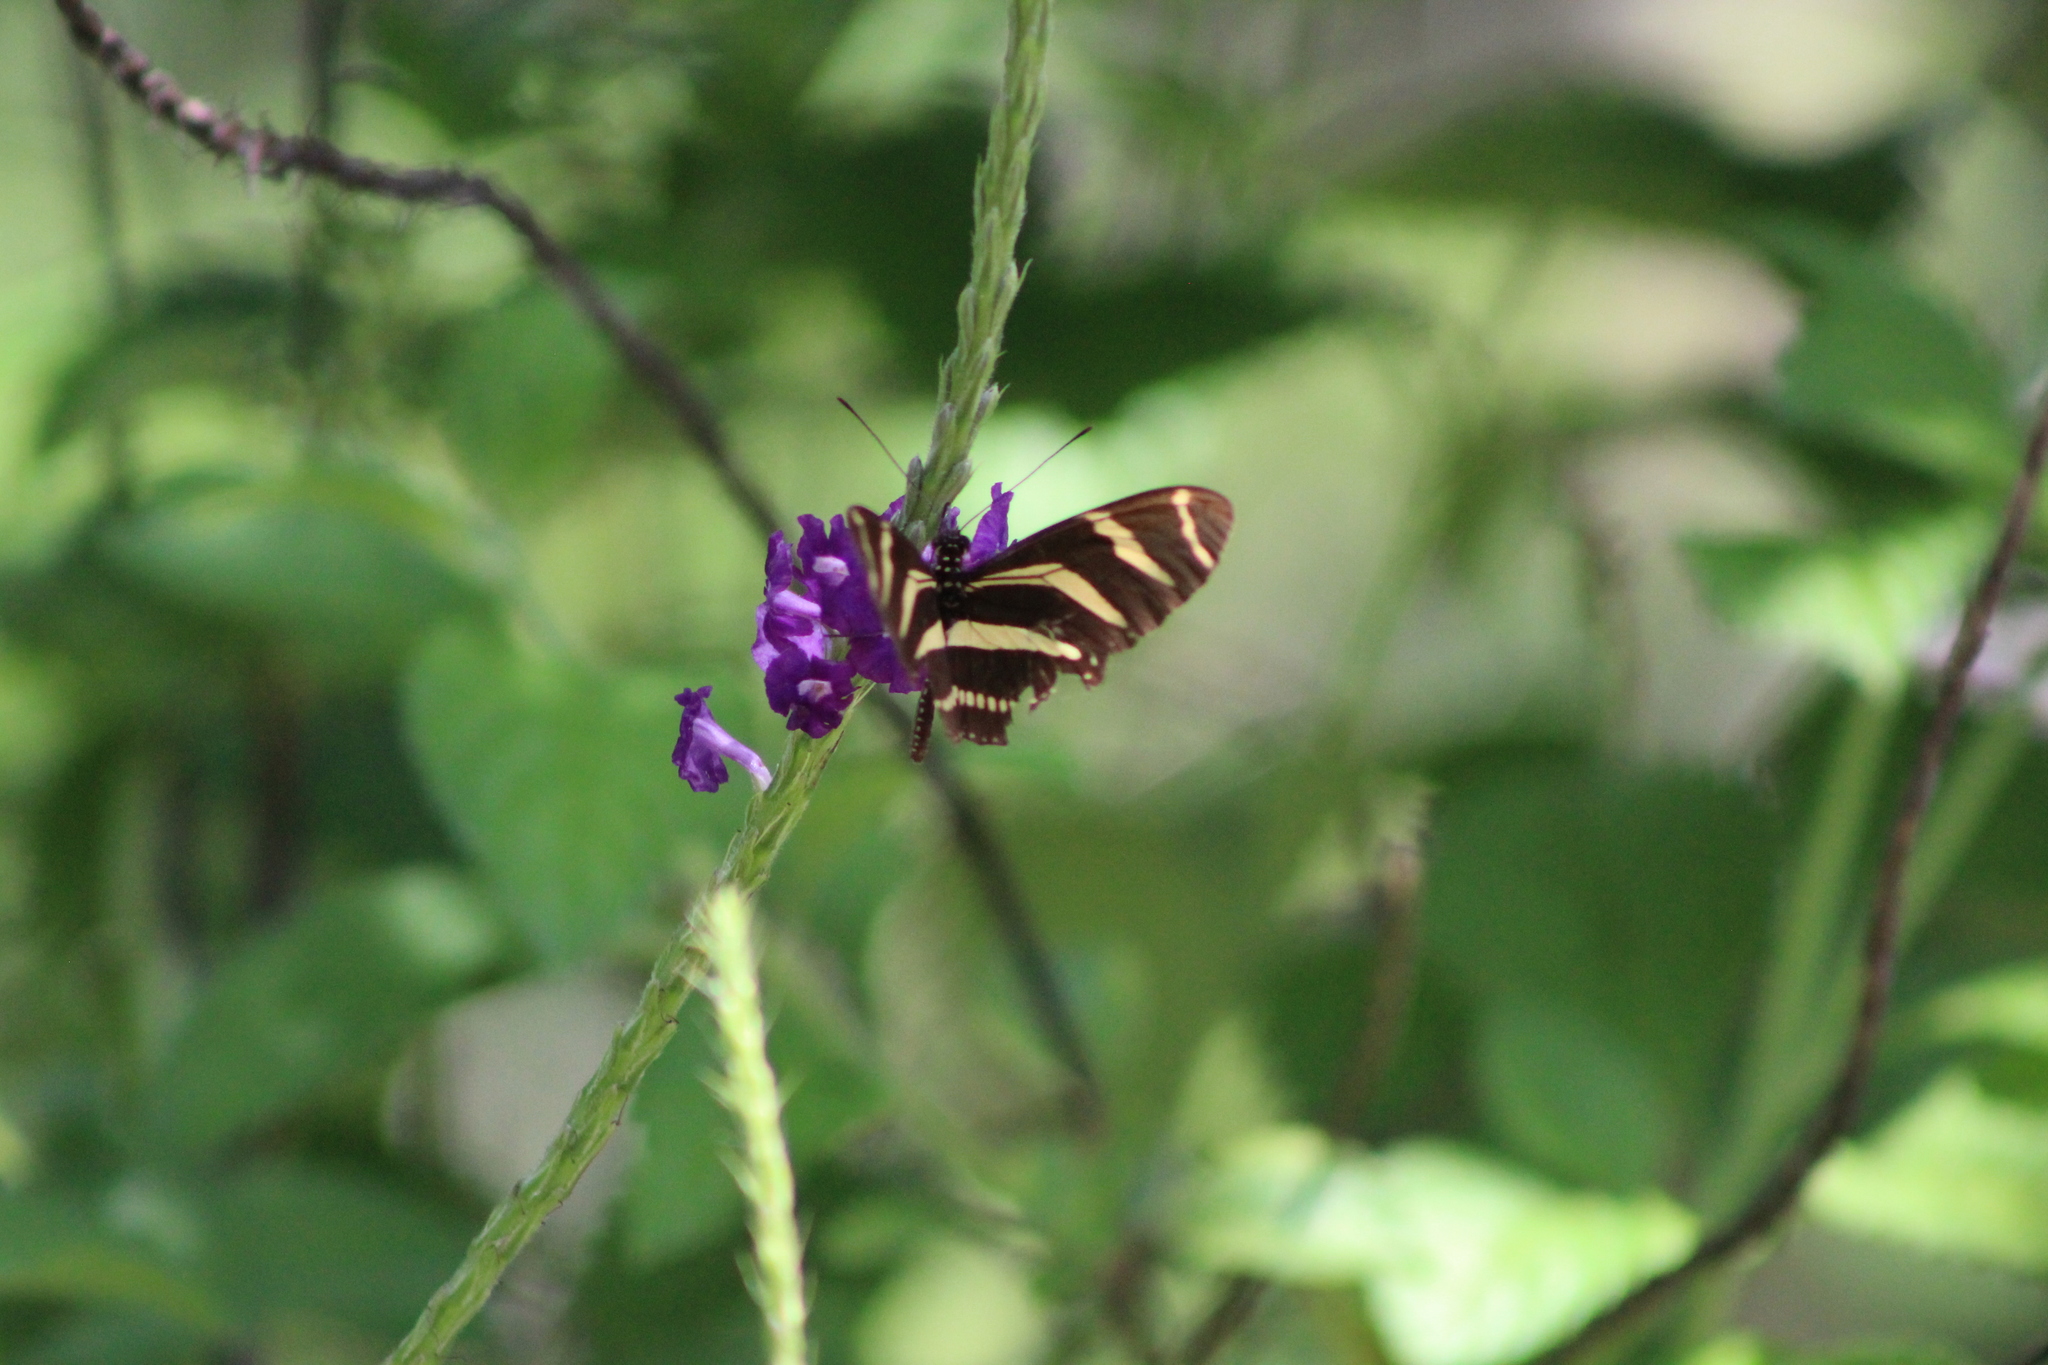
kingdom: Animalia
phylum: Arthropoda
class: Insecta
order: Lepidoptera
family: Nymphalidae
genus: Heliconius
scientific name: Heliconius charithonia
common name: Zebra long wing
